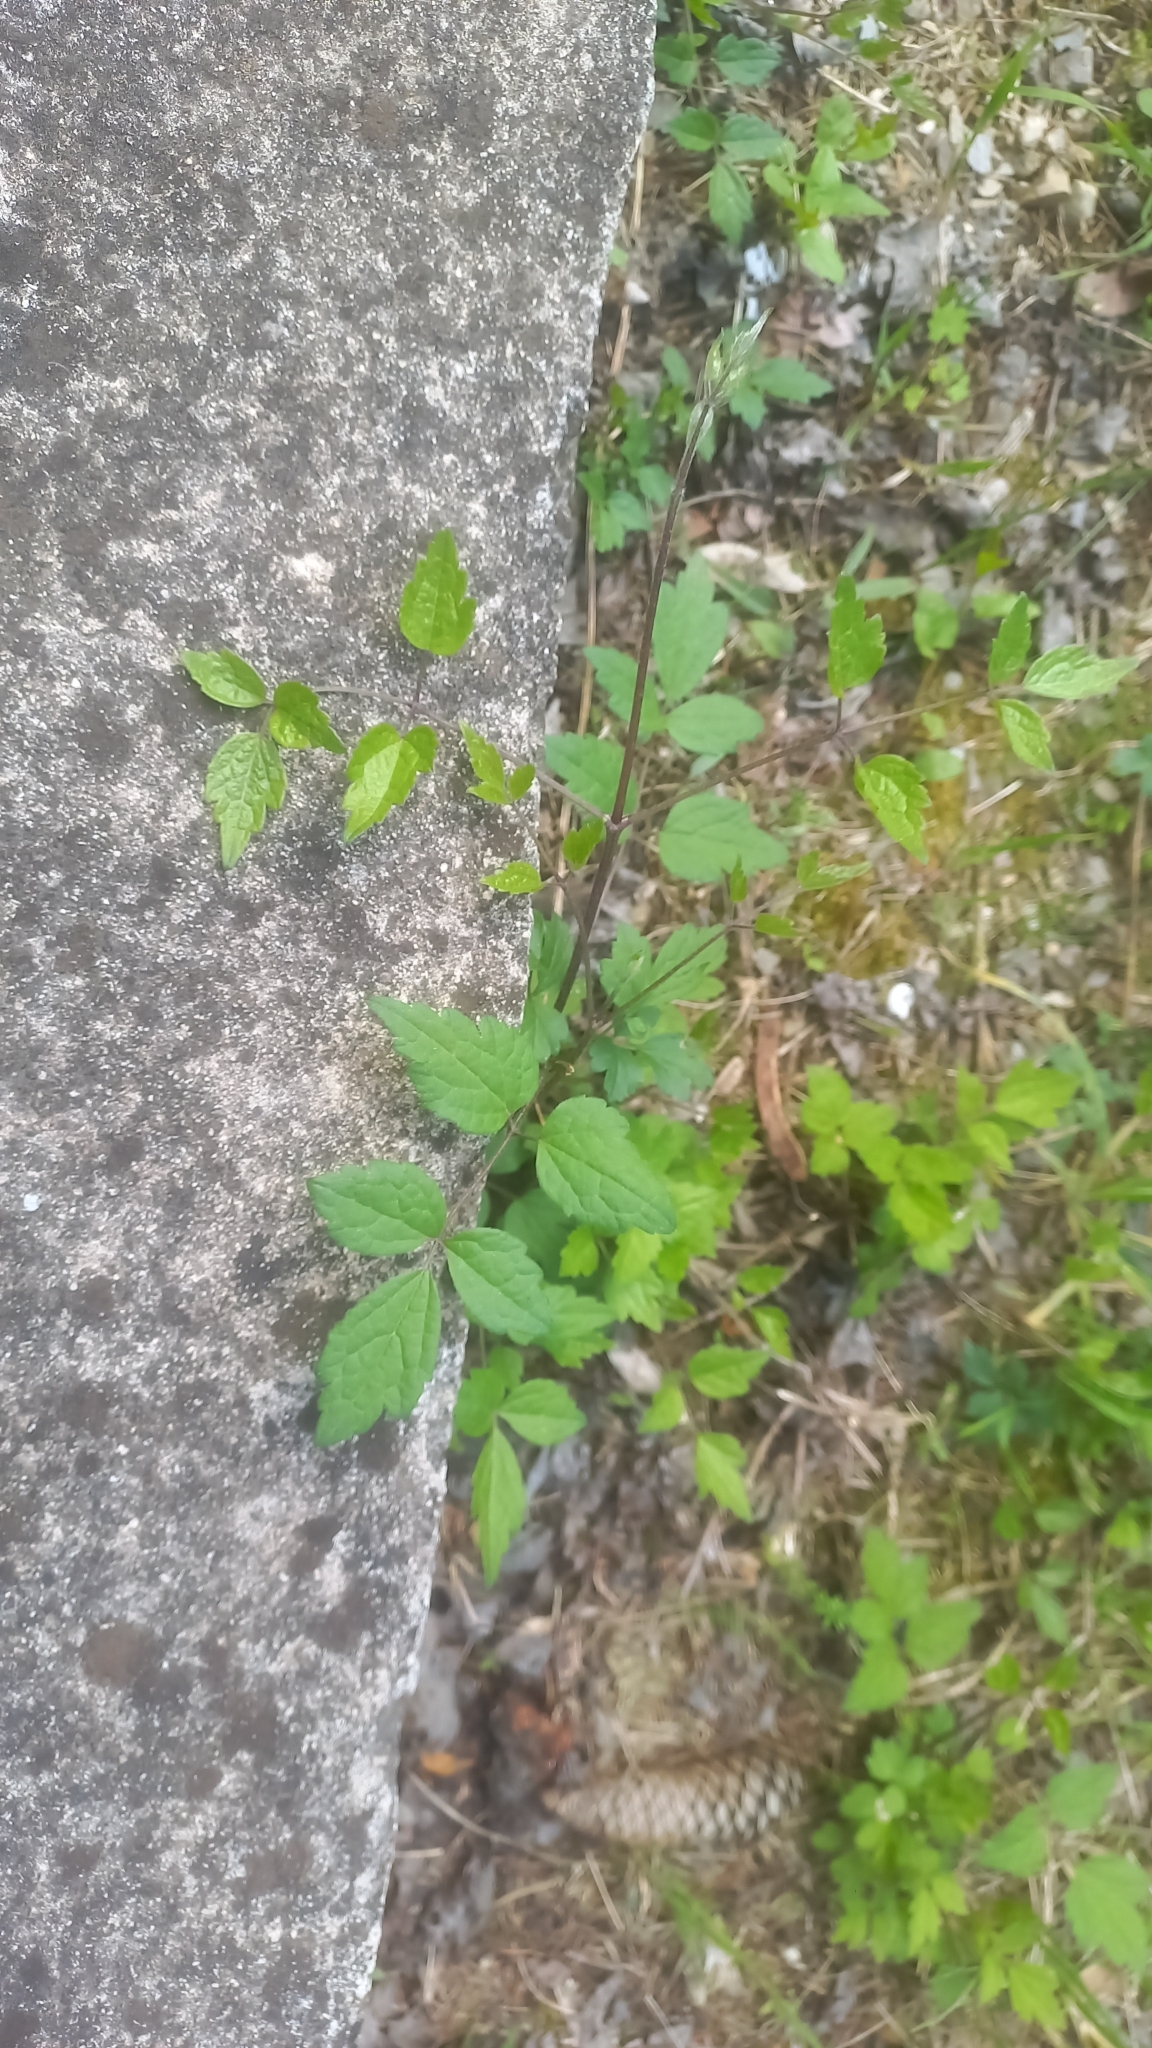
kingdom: Plantae
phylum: Tracheophyta
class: Magnoliopsida
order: Ranunculales
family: Ranunculaceae
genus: Clematis
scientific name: Clematis vitalba
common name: Evergreen clematis
